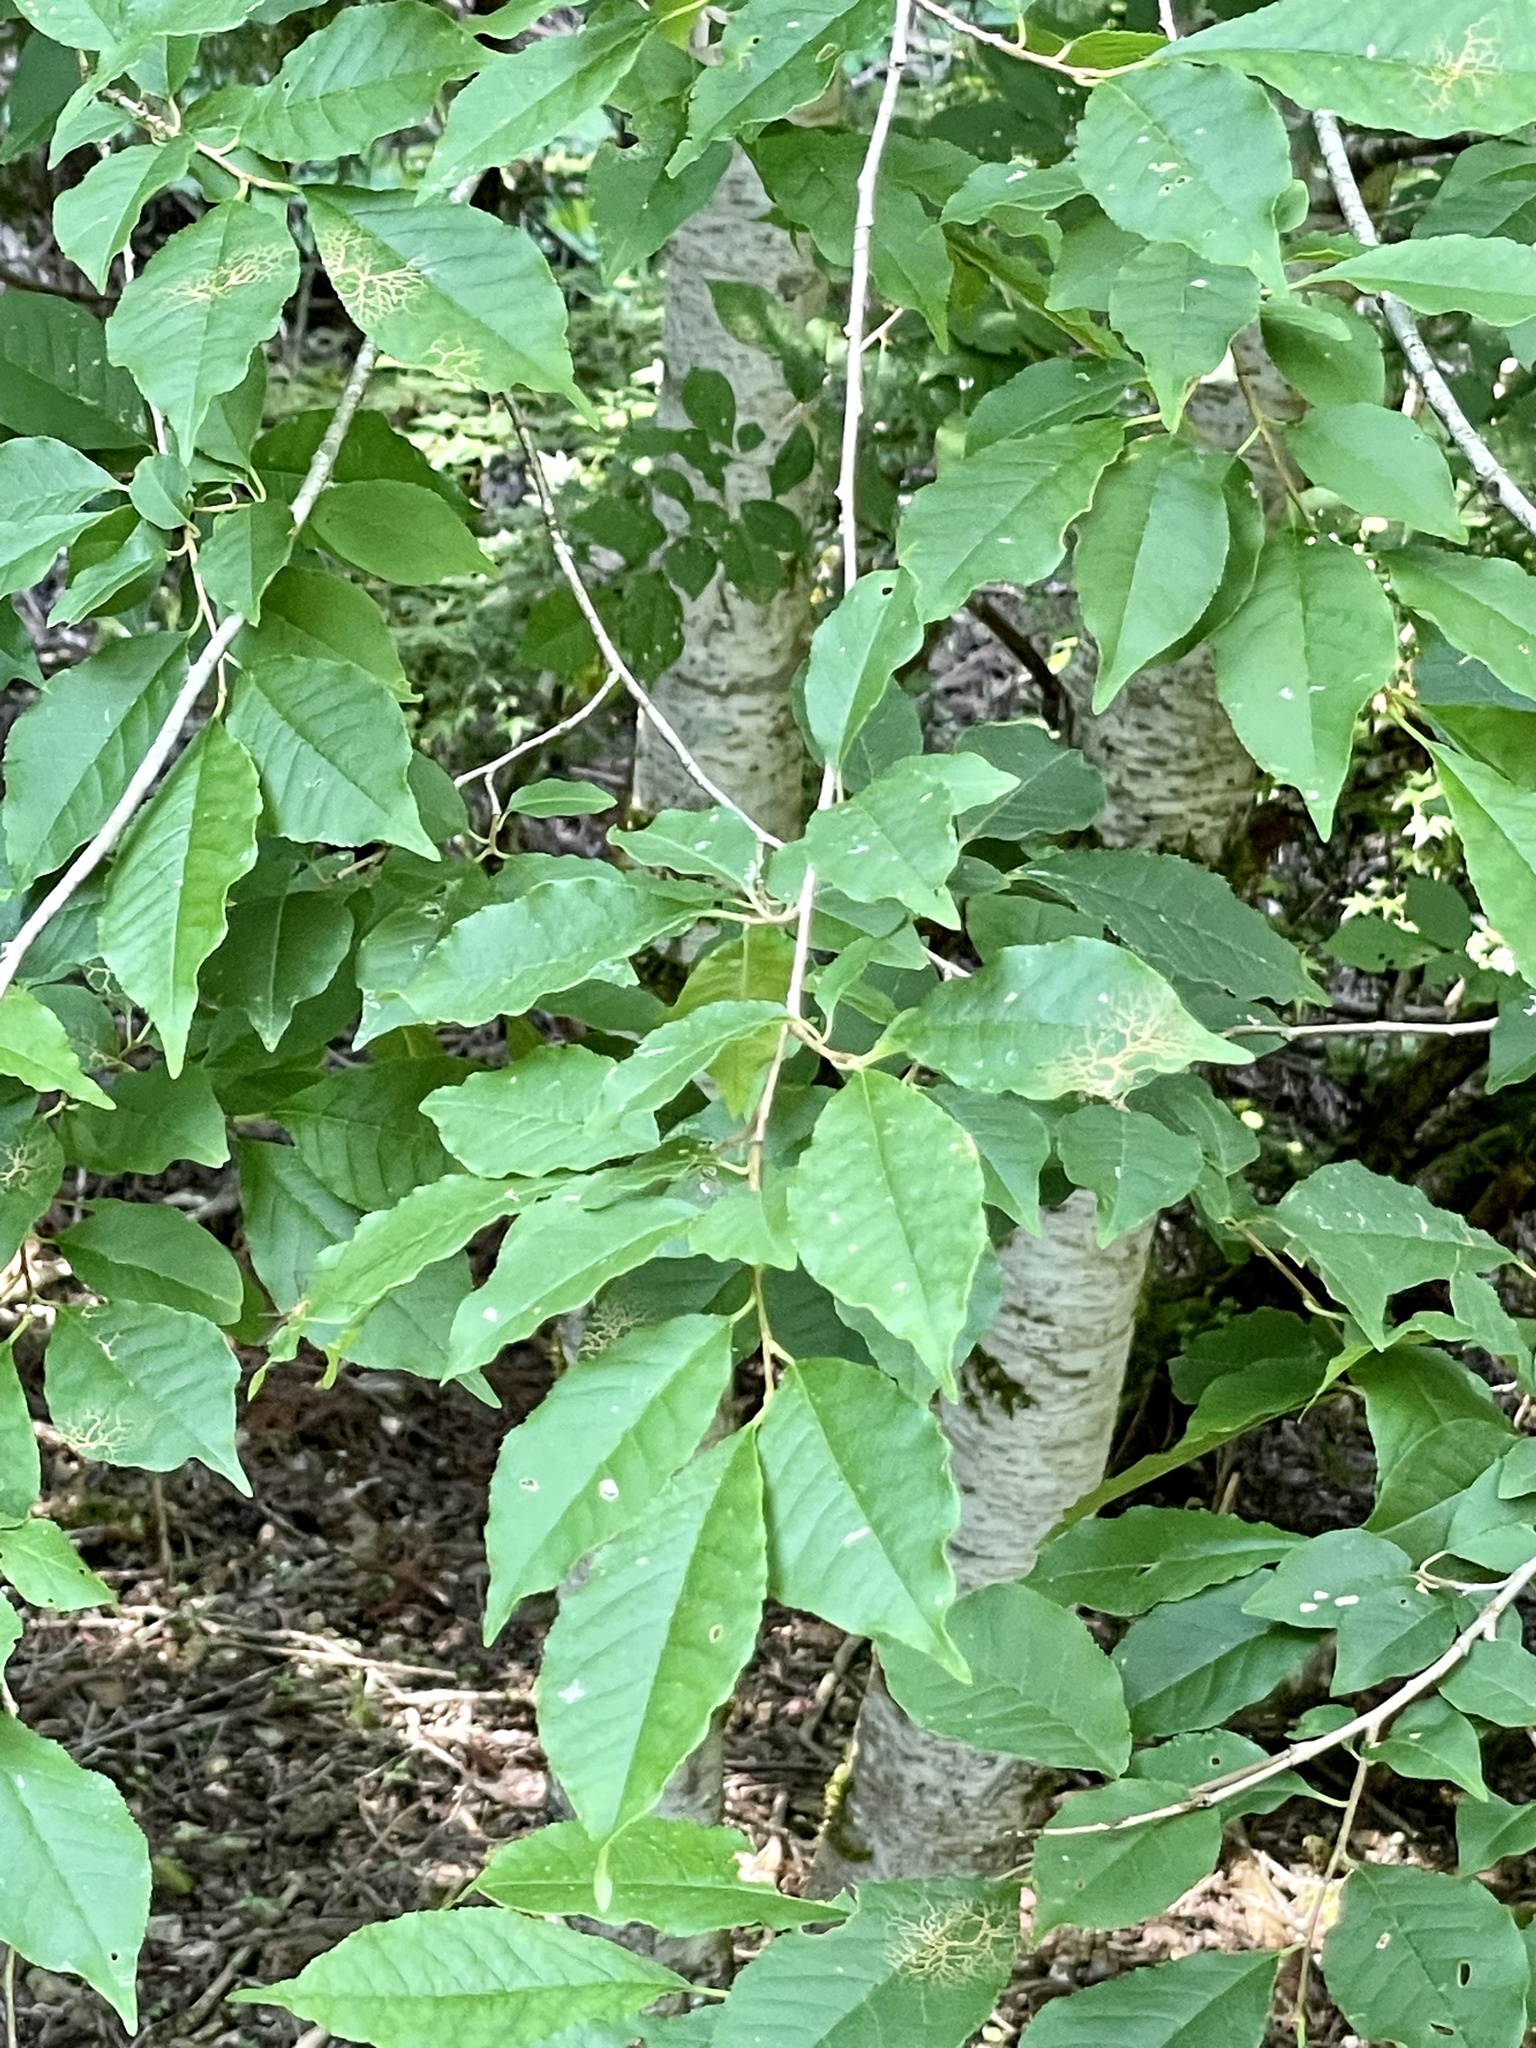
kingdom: Plantae
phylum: Tracheophyta
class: Magnoliopsida
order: Rosales
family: Rosaceae
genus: Prunus
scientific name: Prunus buergeriana
